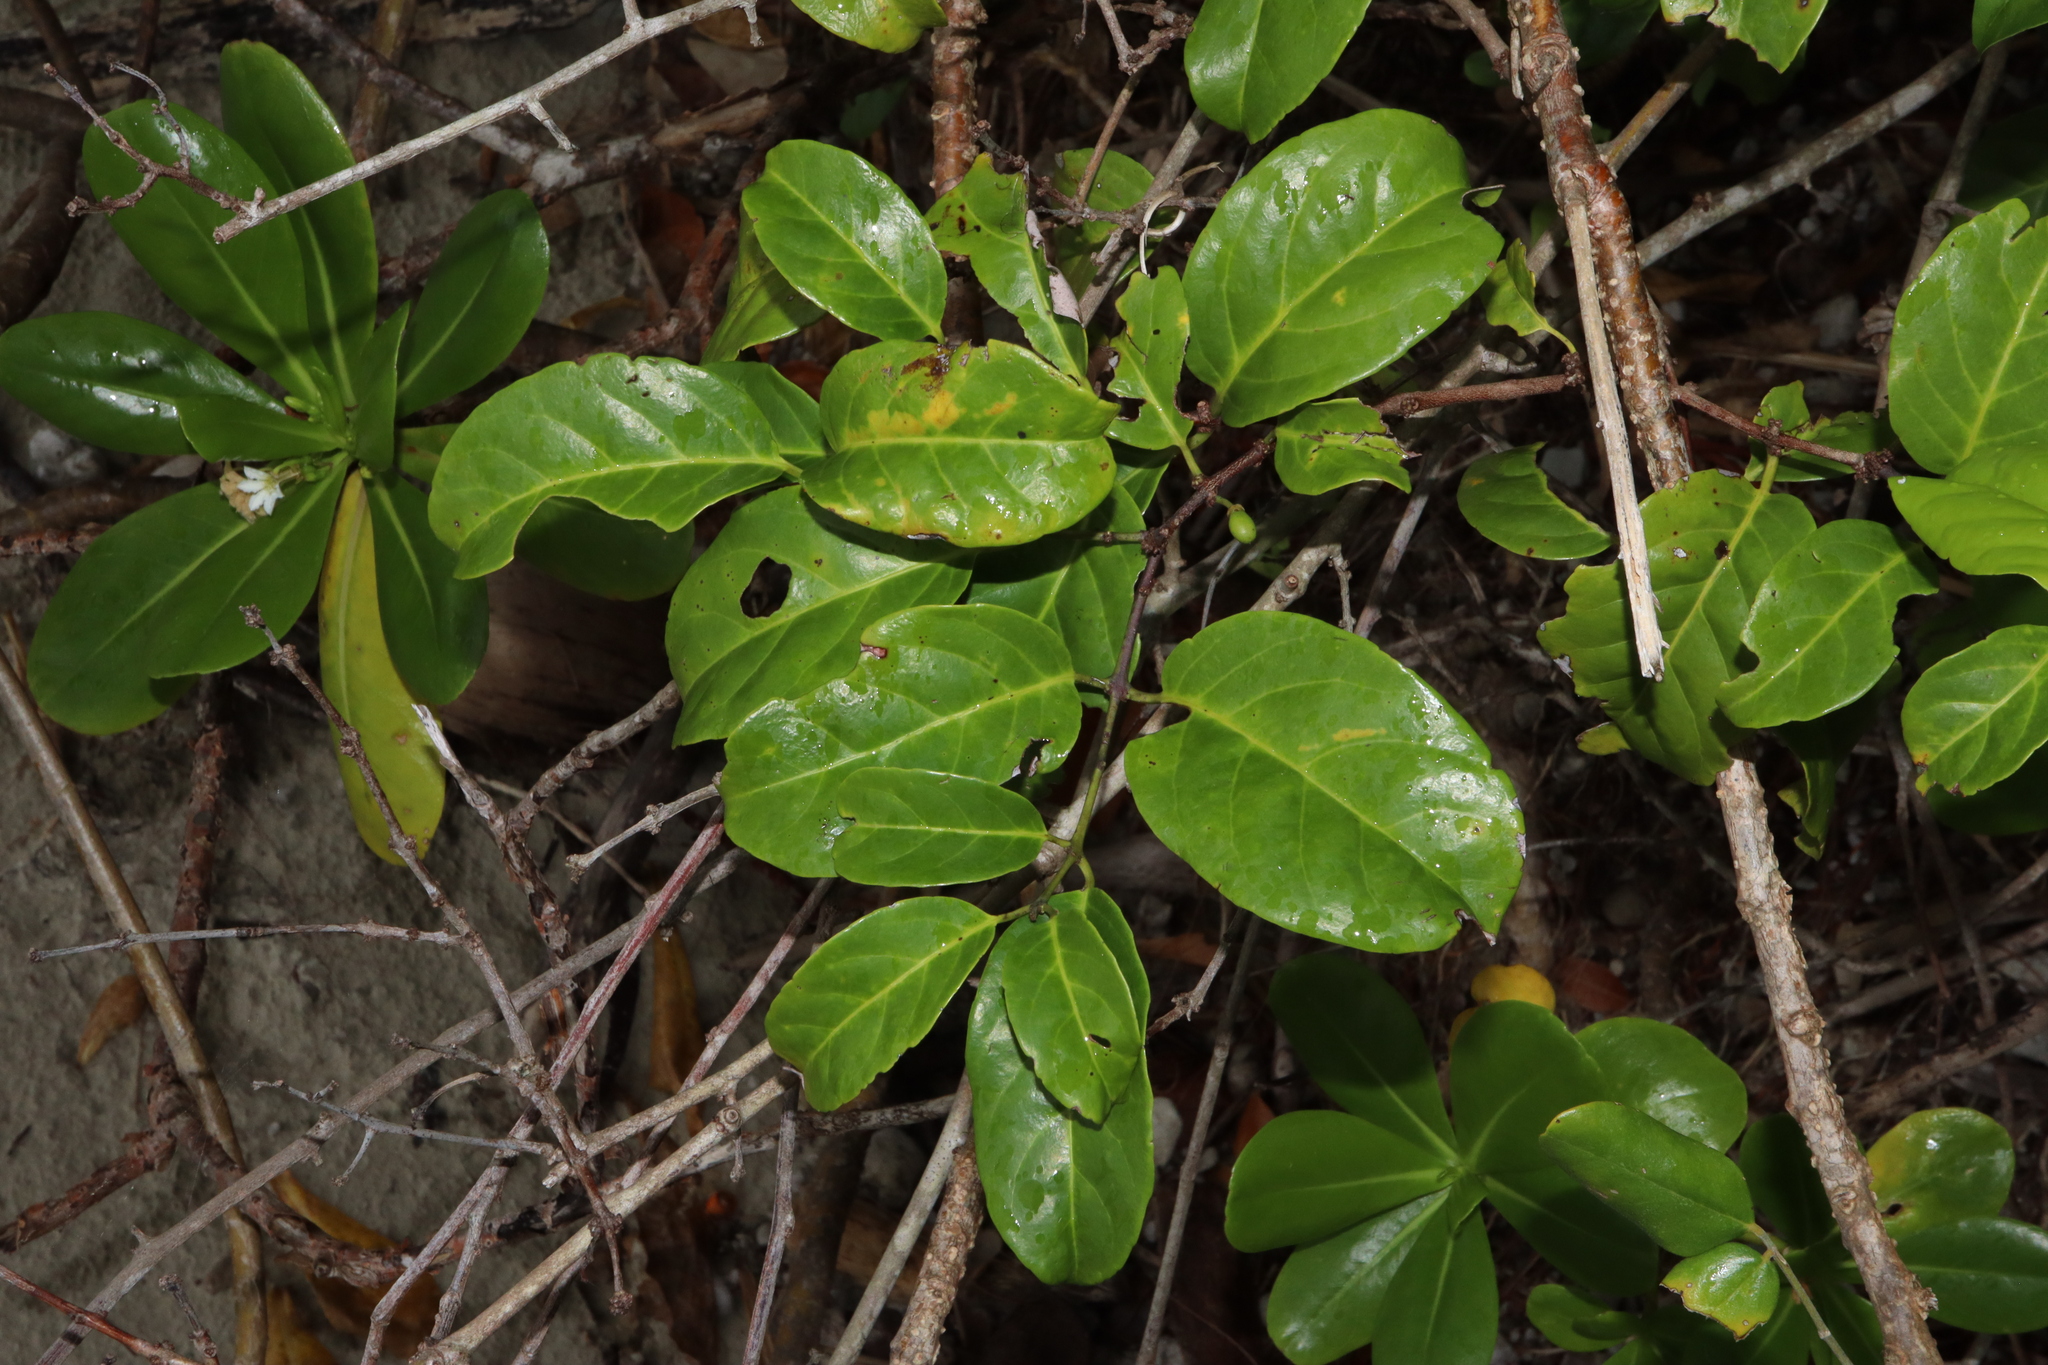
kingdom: Plantae
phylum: Tracheophyta
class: Magnoliopsida
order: Celastrales
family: Celastraceae
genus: Salacia
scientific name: Salacia chinensis
